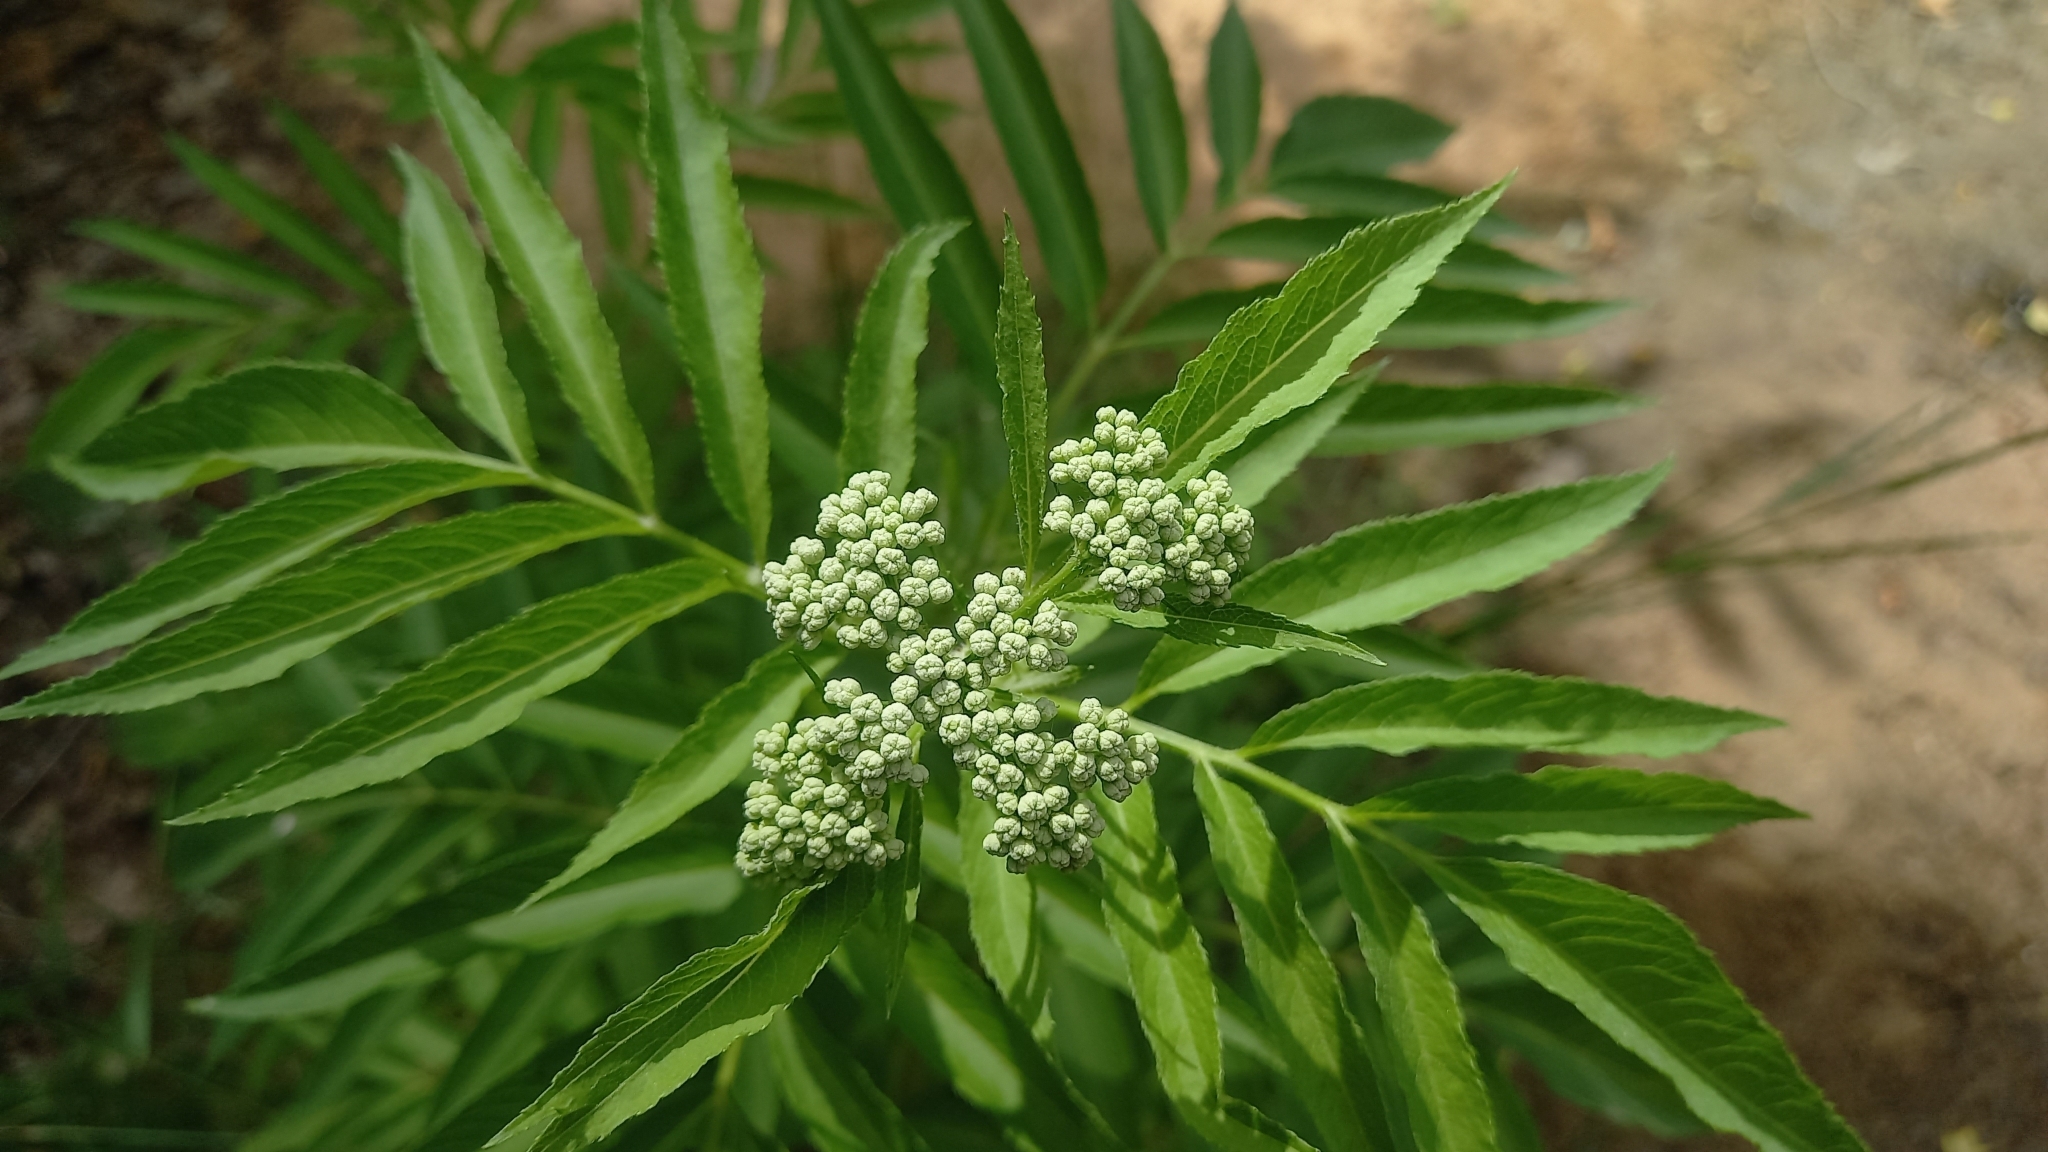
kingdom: Plantae
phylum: Tracheophyta
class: Magnoliopsida
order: Dipsacales
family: Viburnaceae
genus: Sambucus
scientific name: Sambucus ebulus
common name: Dwarf elder
